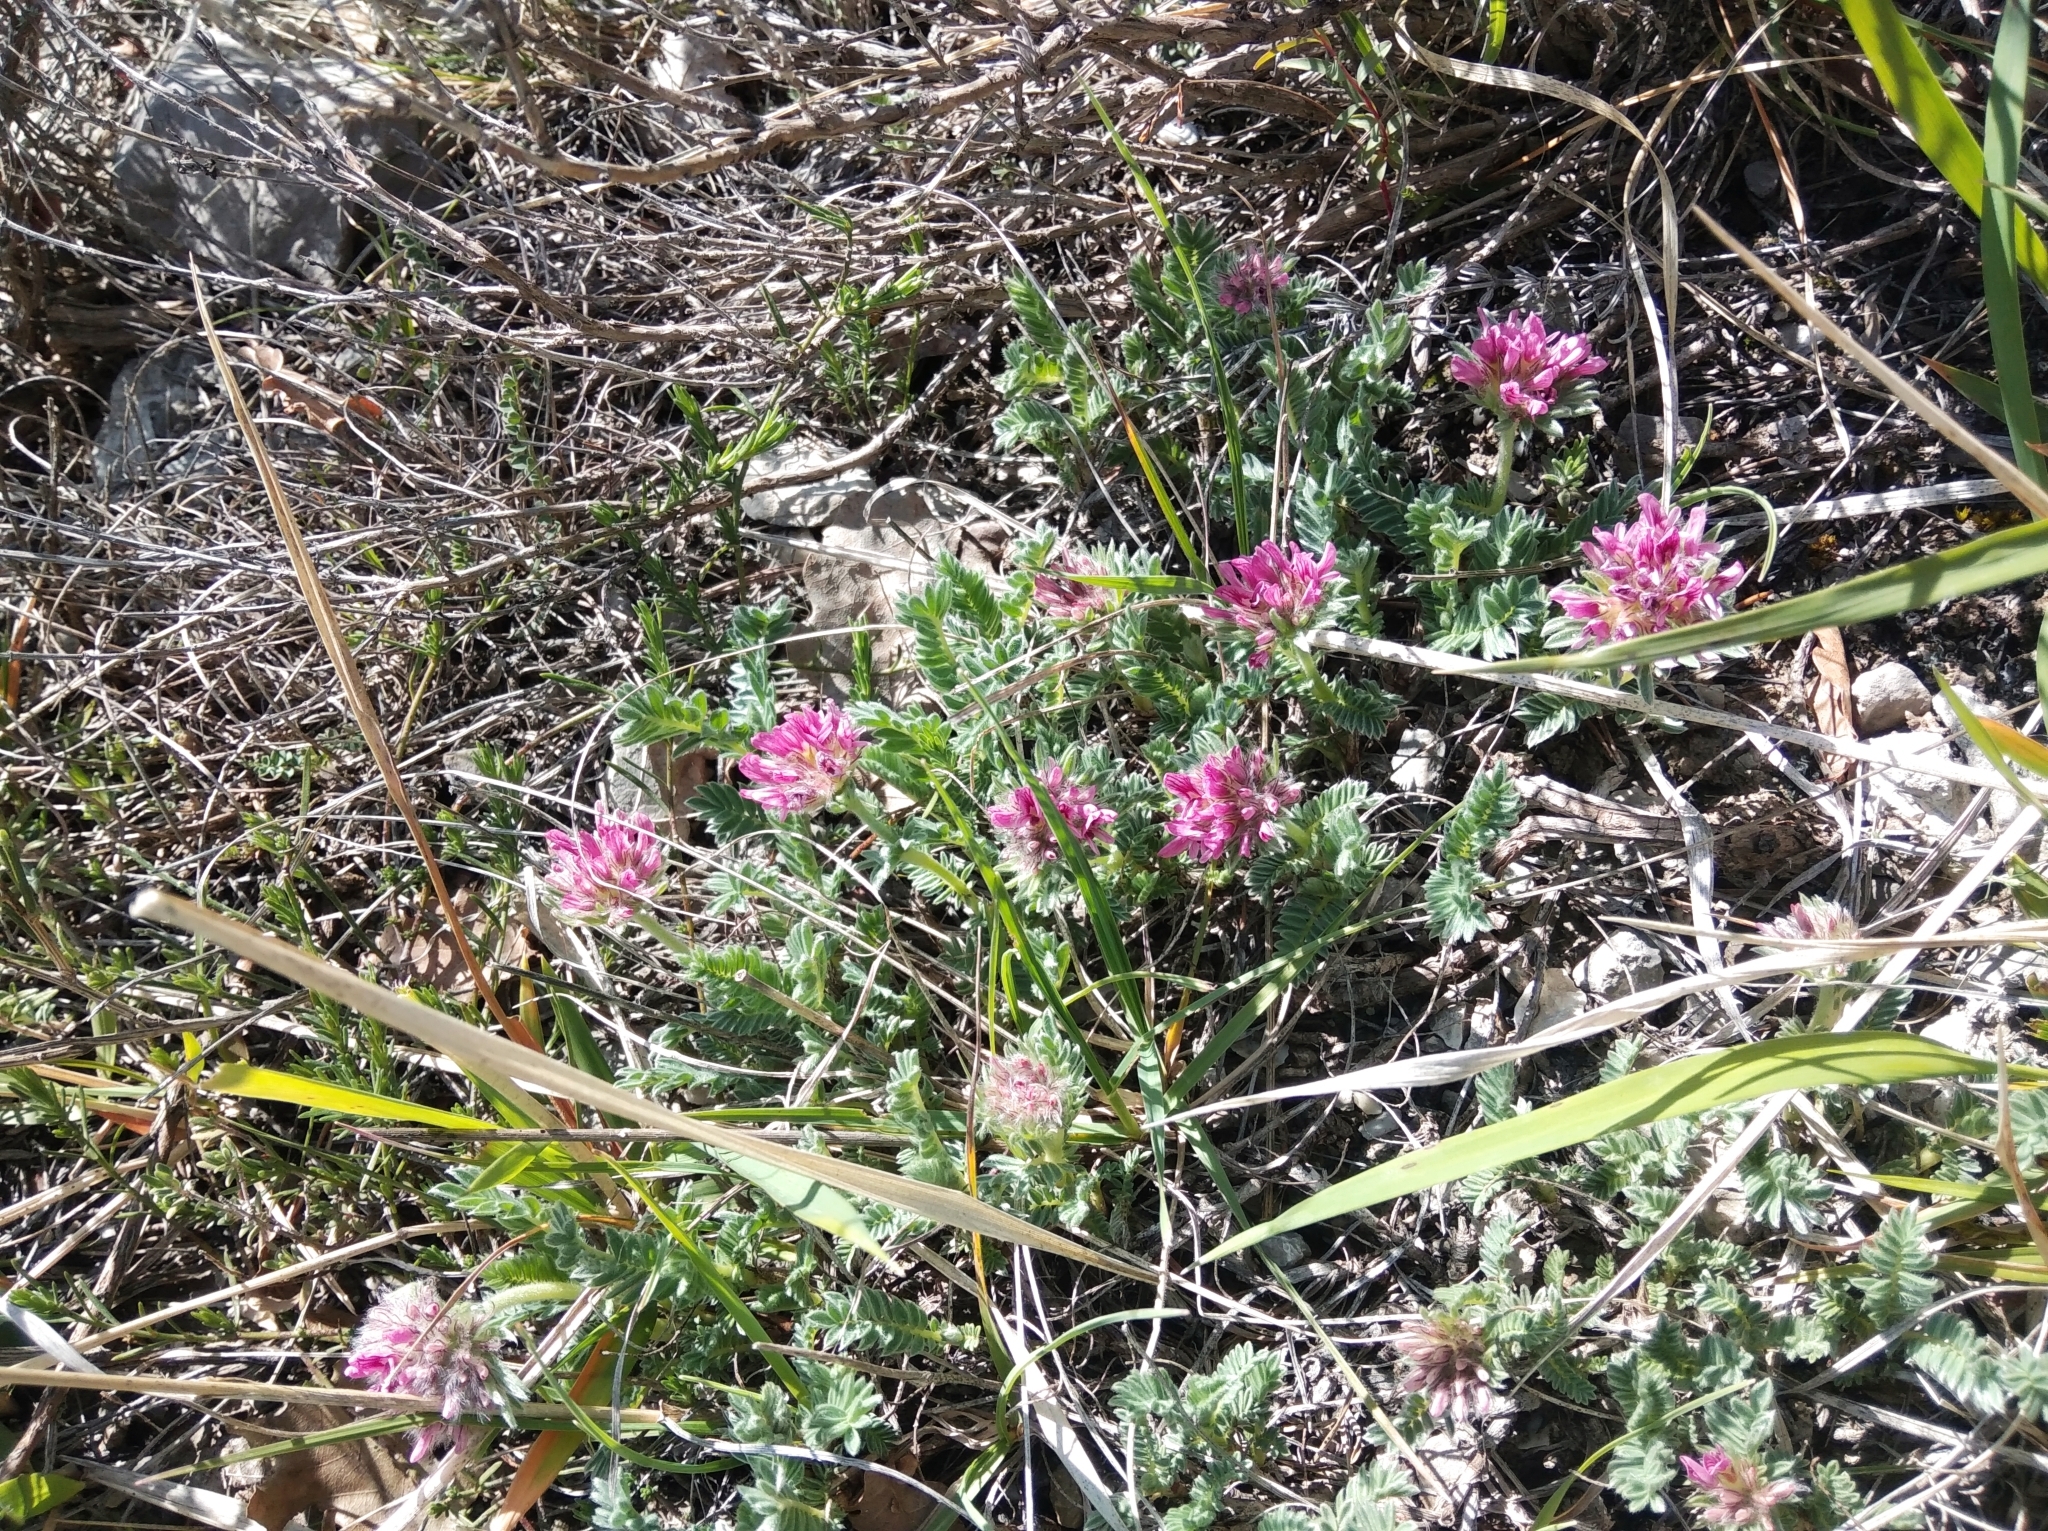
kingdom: Plantae
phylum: Tracheophyta
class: Magnoliopsida
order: Fabales
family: Fabaceae
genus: Anthyllis
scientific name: Anthyllis montana
